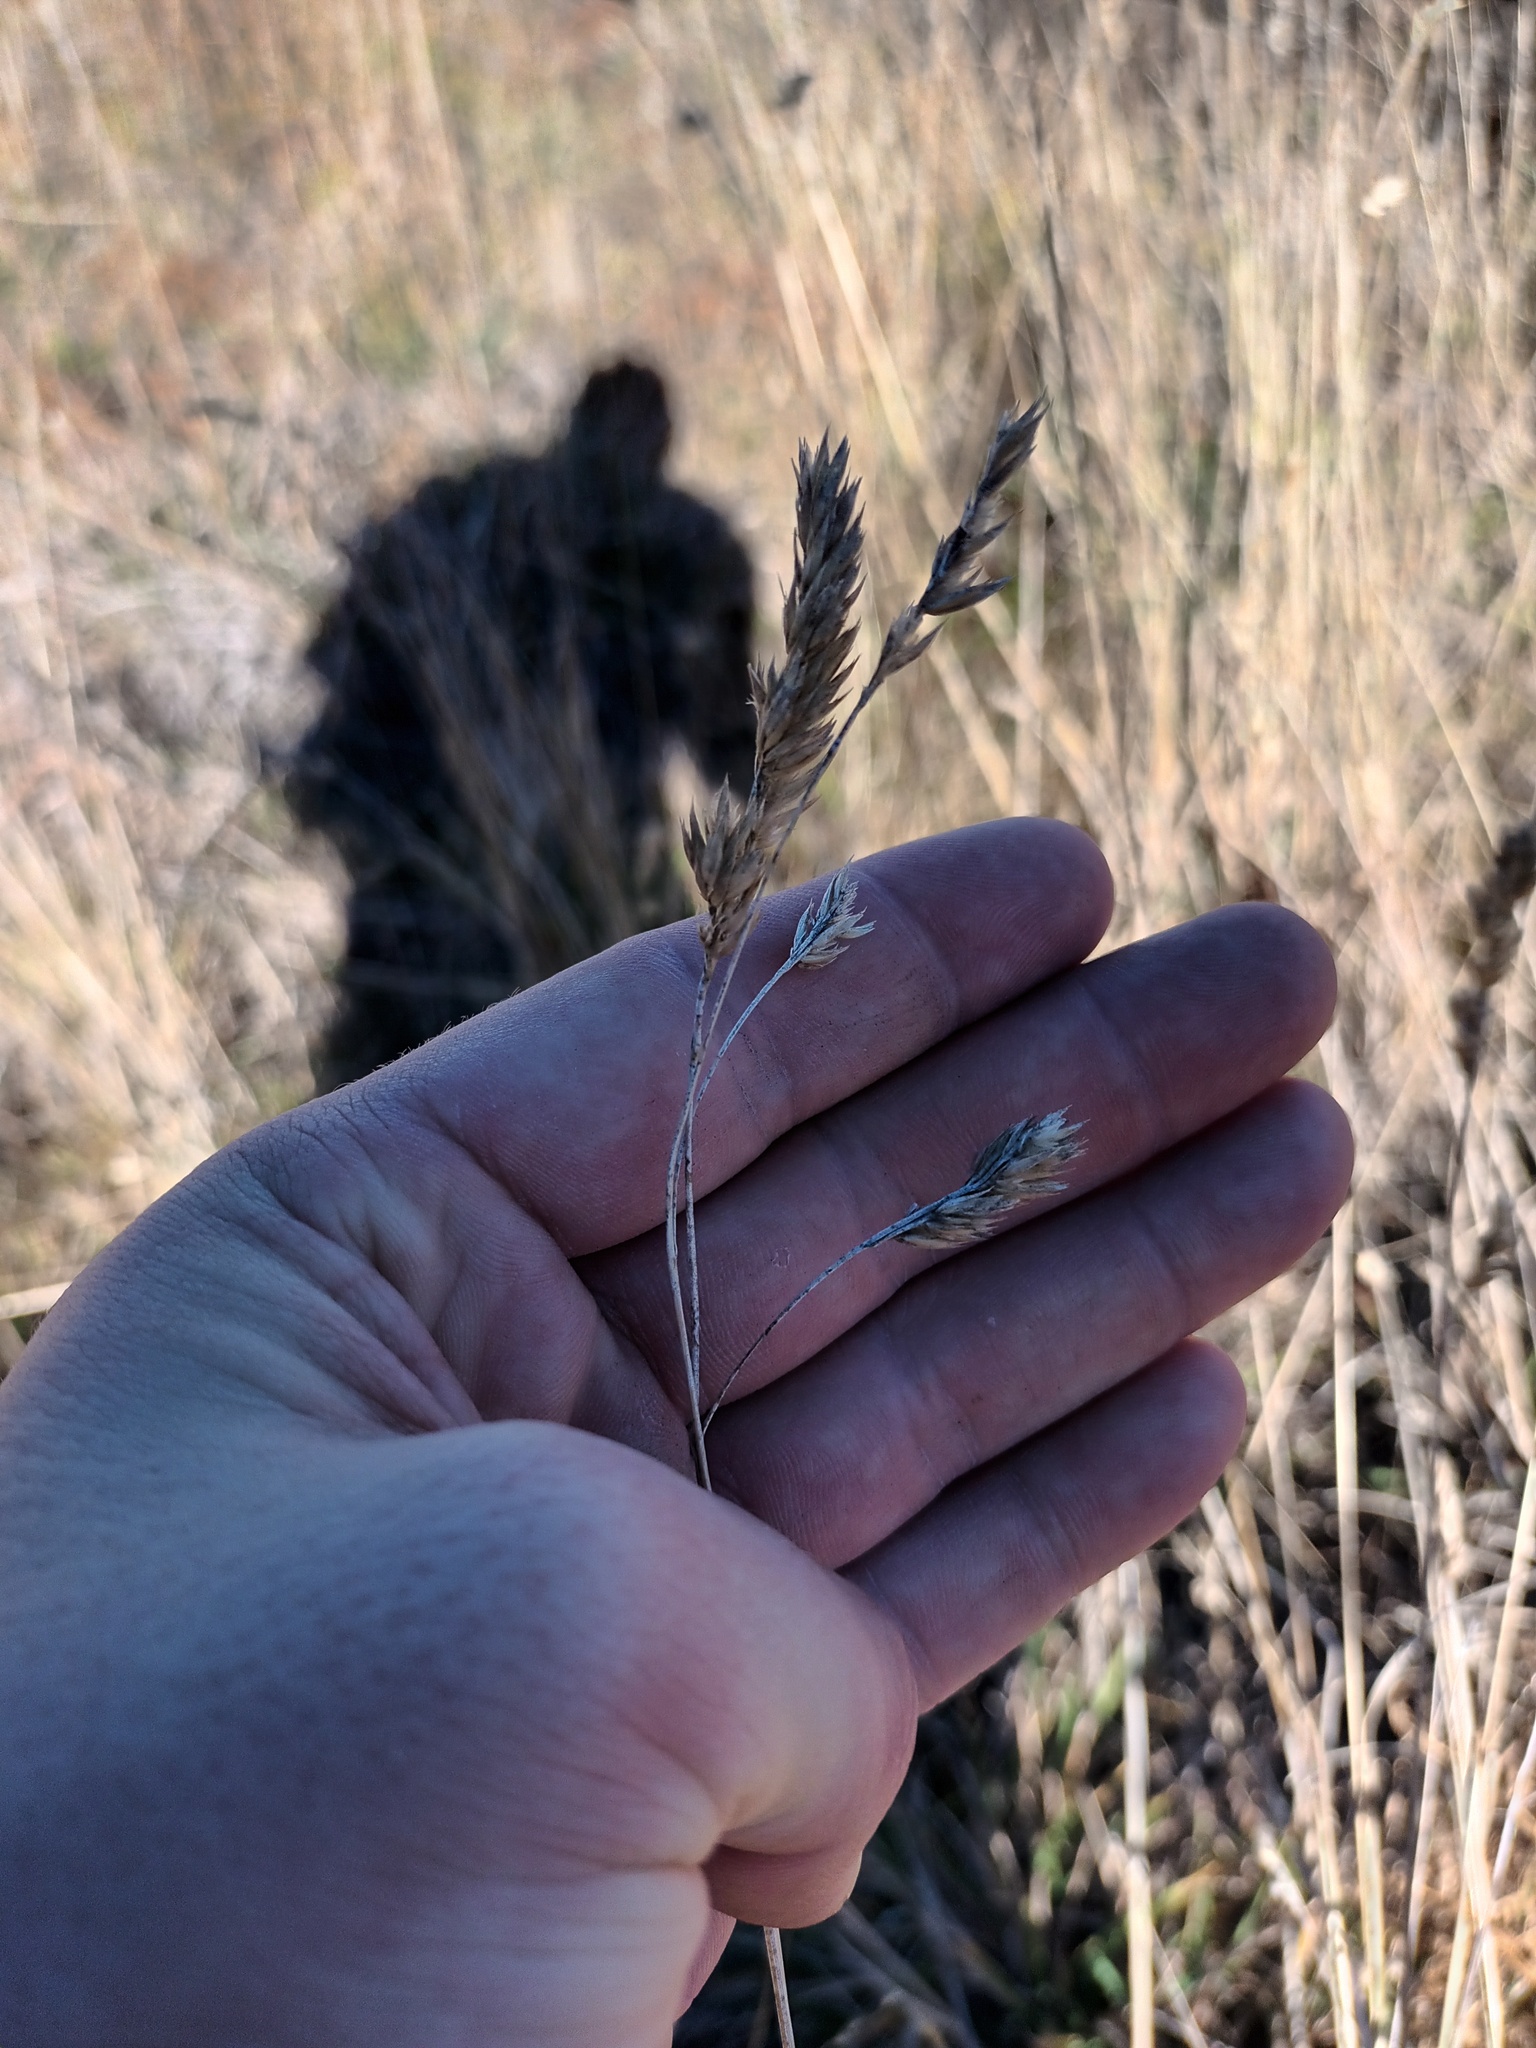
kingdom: Plantae
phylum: Tracheophyta
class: Liliopsida
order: Poales
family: Poaceae
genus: Dactylis
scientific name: Dactylis glomerata
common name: Orchardgrass
